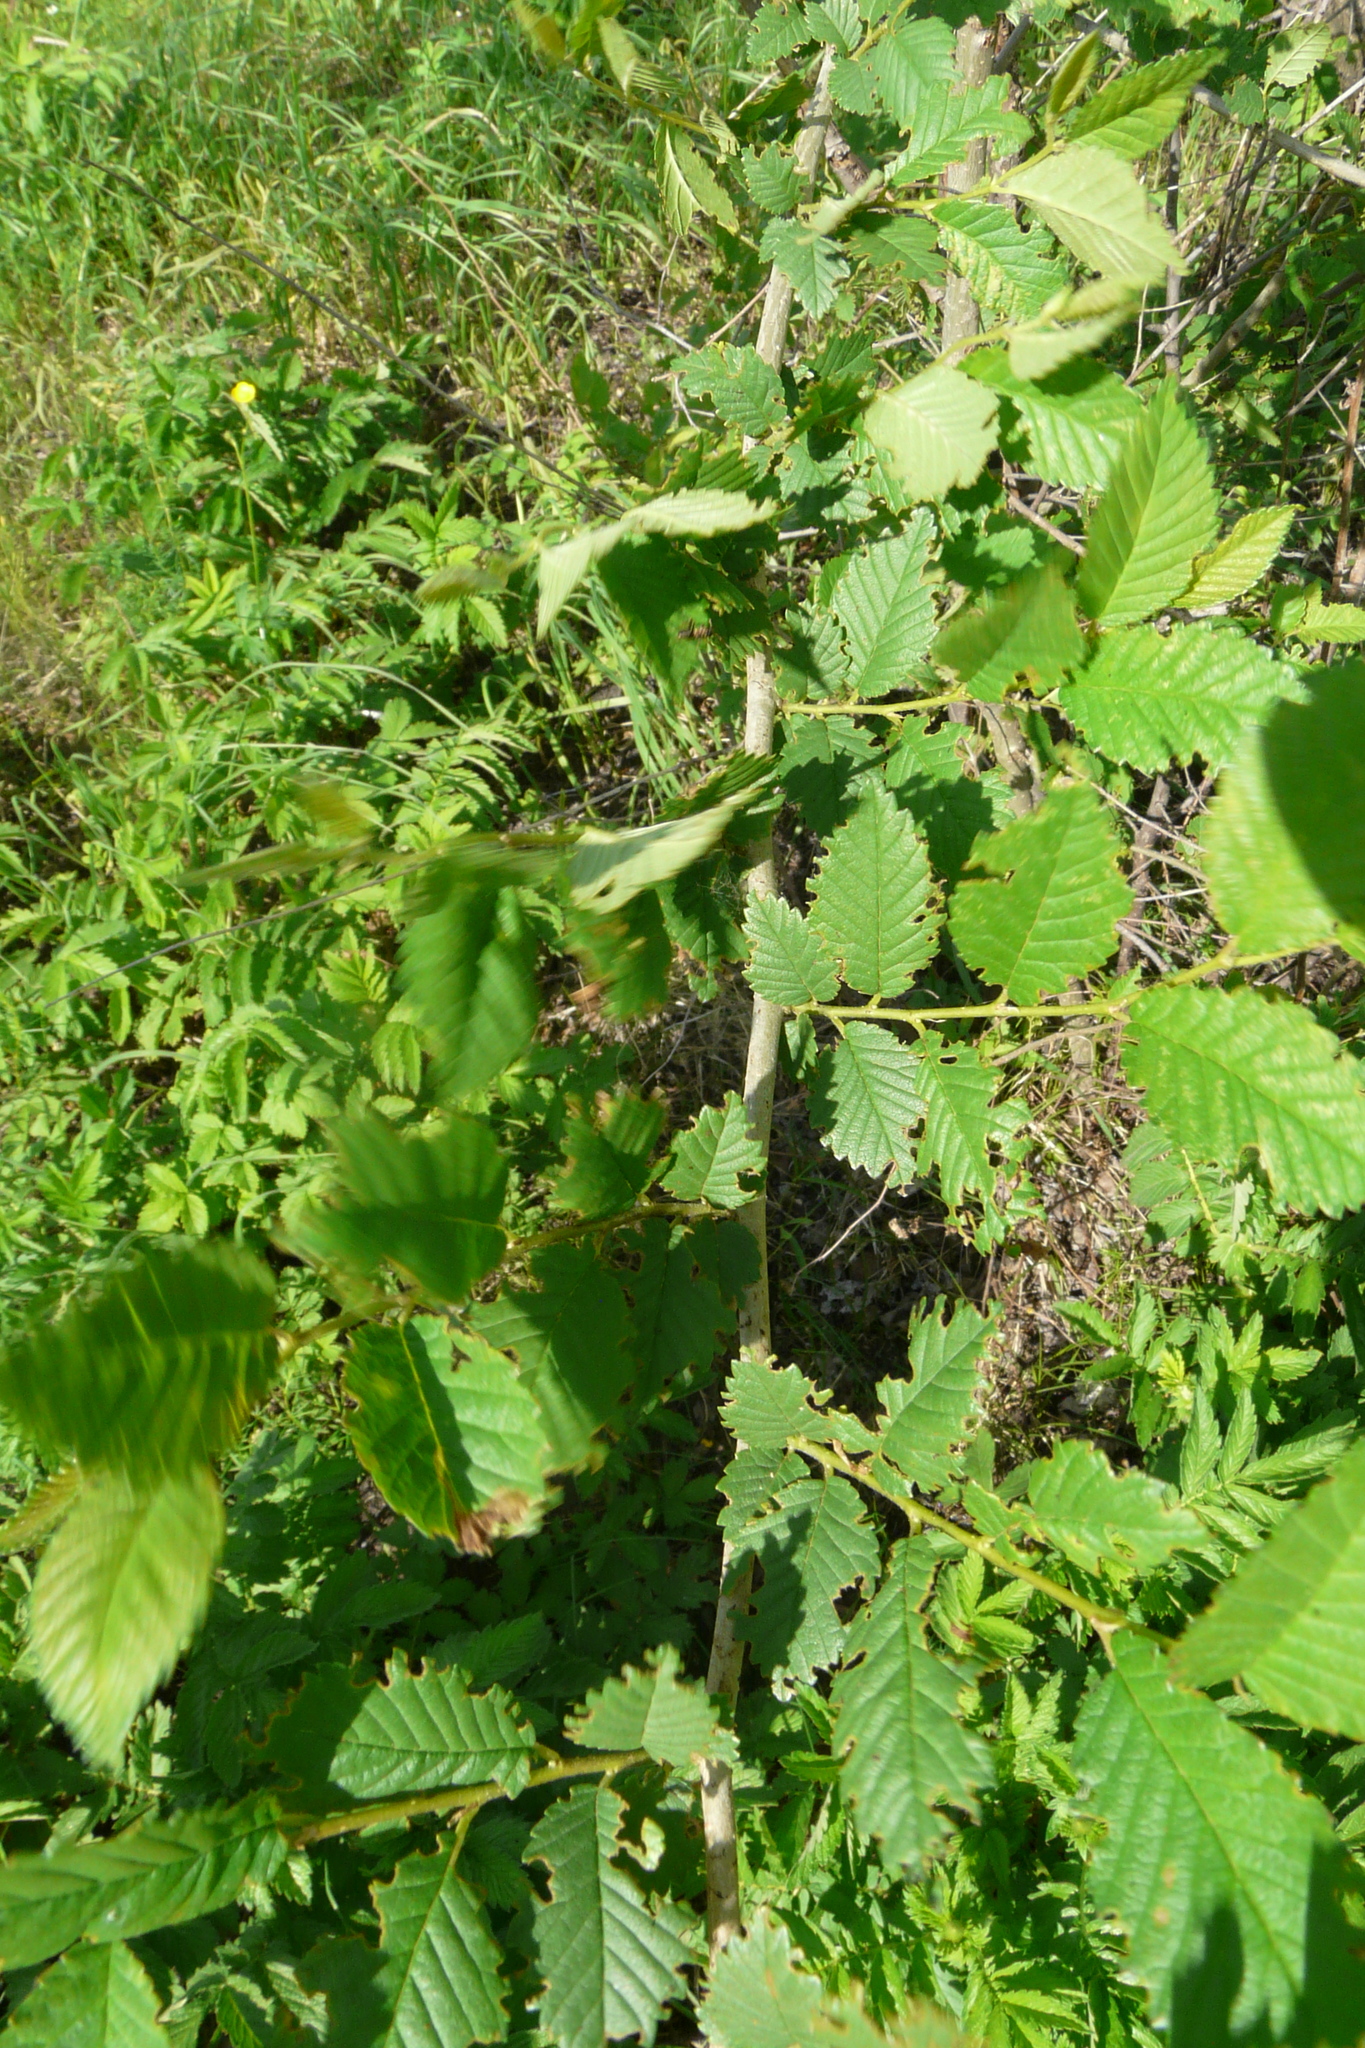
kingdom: Plantae
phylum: Tracheophyta
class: Magnoliopsida
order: Rosales
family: Ulmaceae
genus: Ulmus
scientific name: Ulmus pumila
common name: Siberian elm
